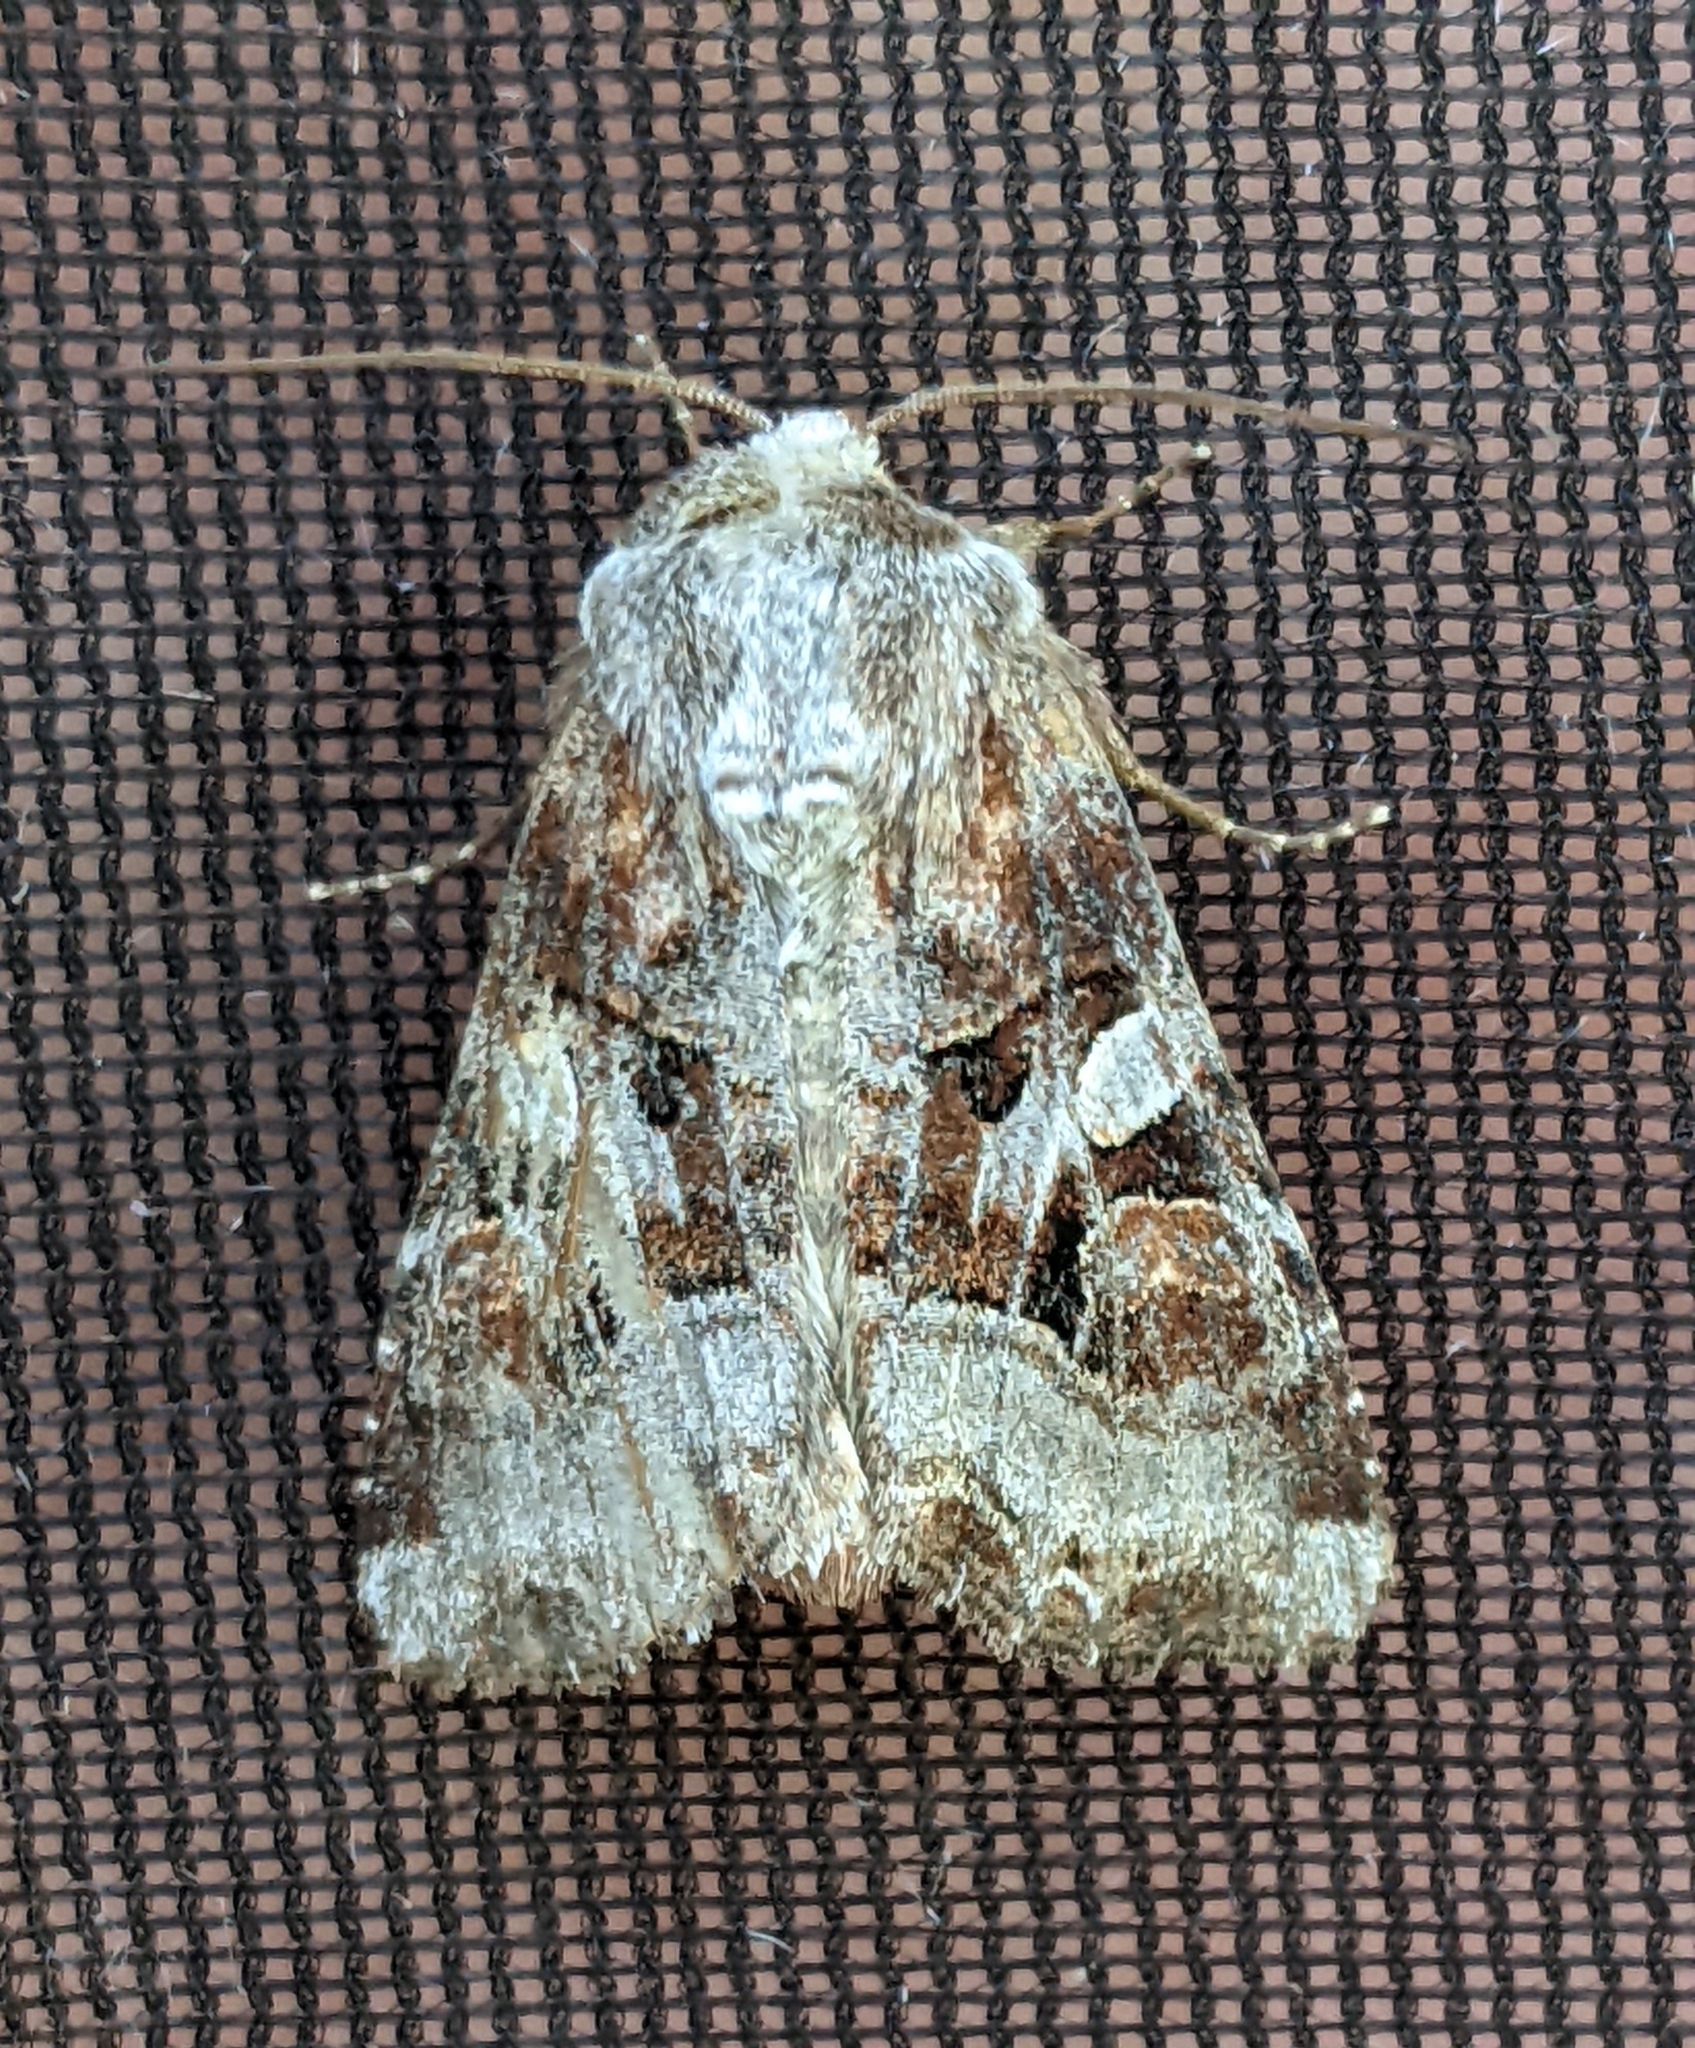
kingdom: Animalia
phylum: Arthropoda
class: Insecta
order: Lepidoptera
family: Noctuidae
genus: Trichordestra
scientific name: Trichordestra tacoma
